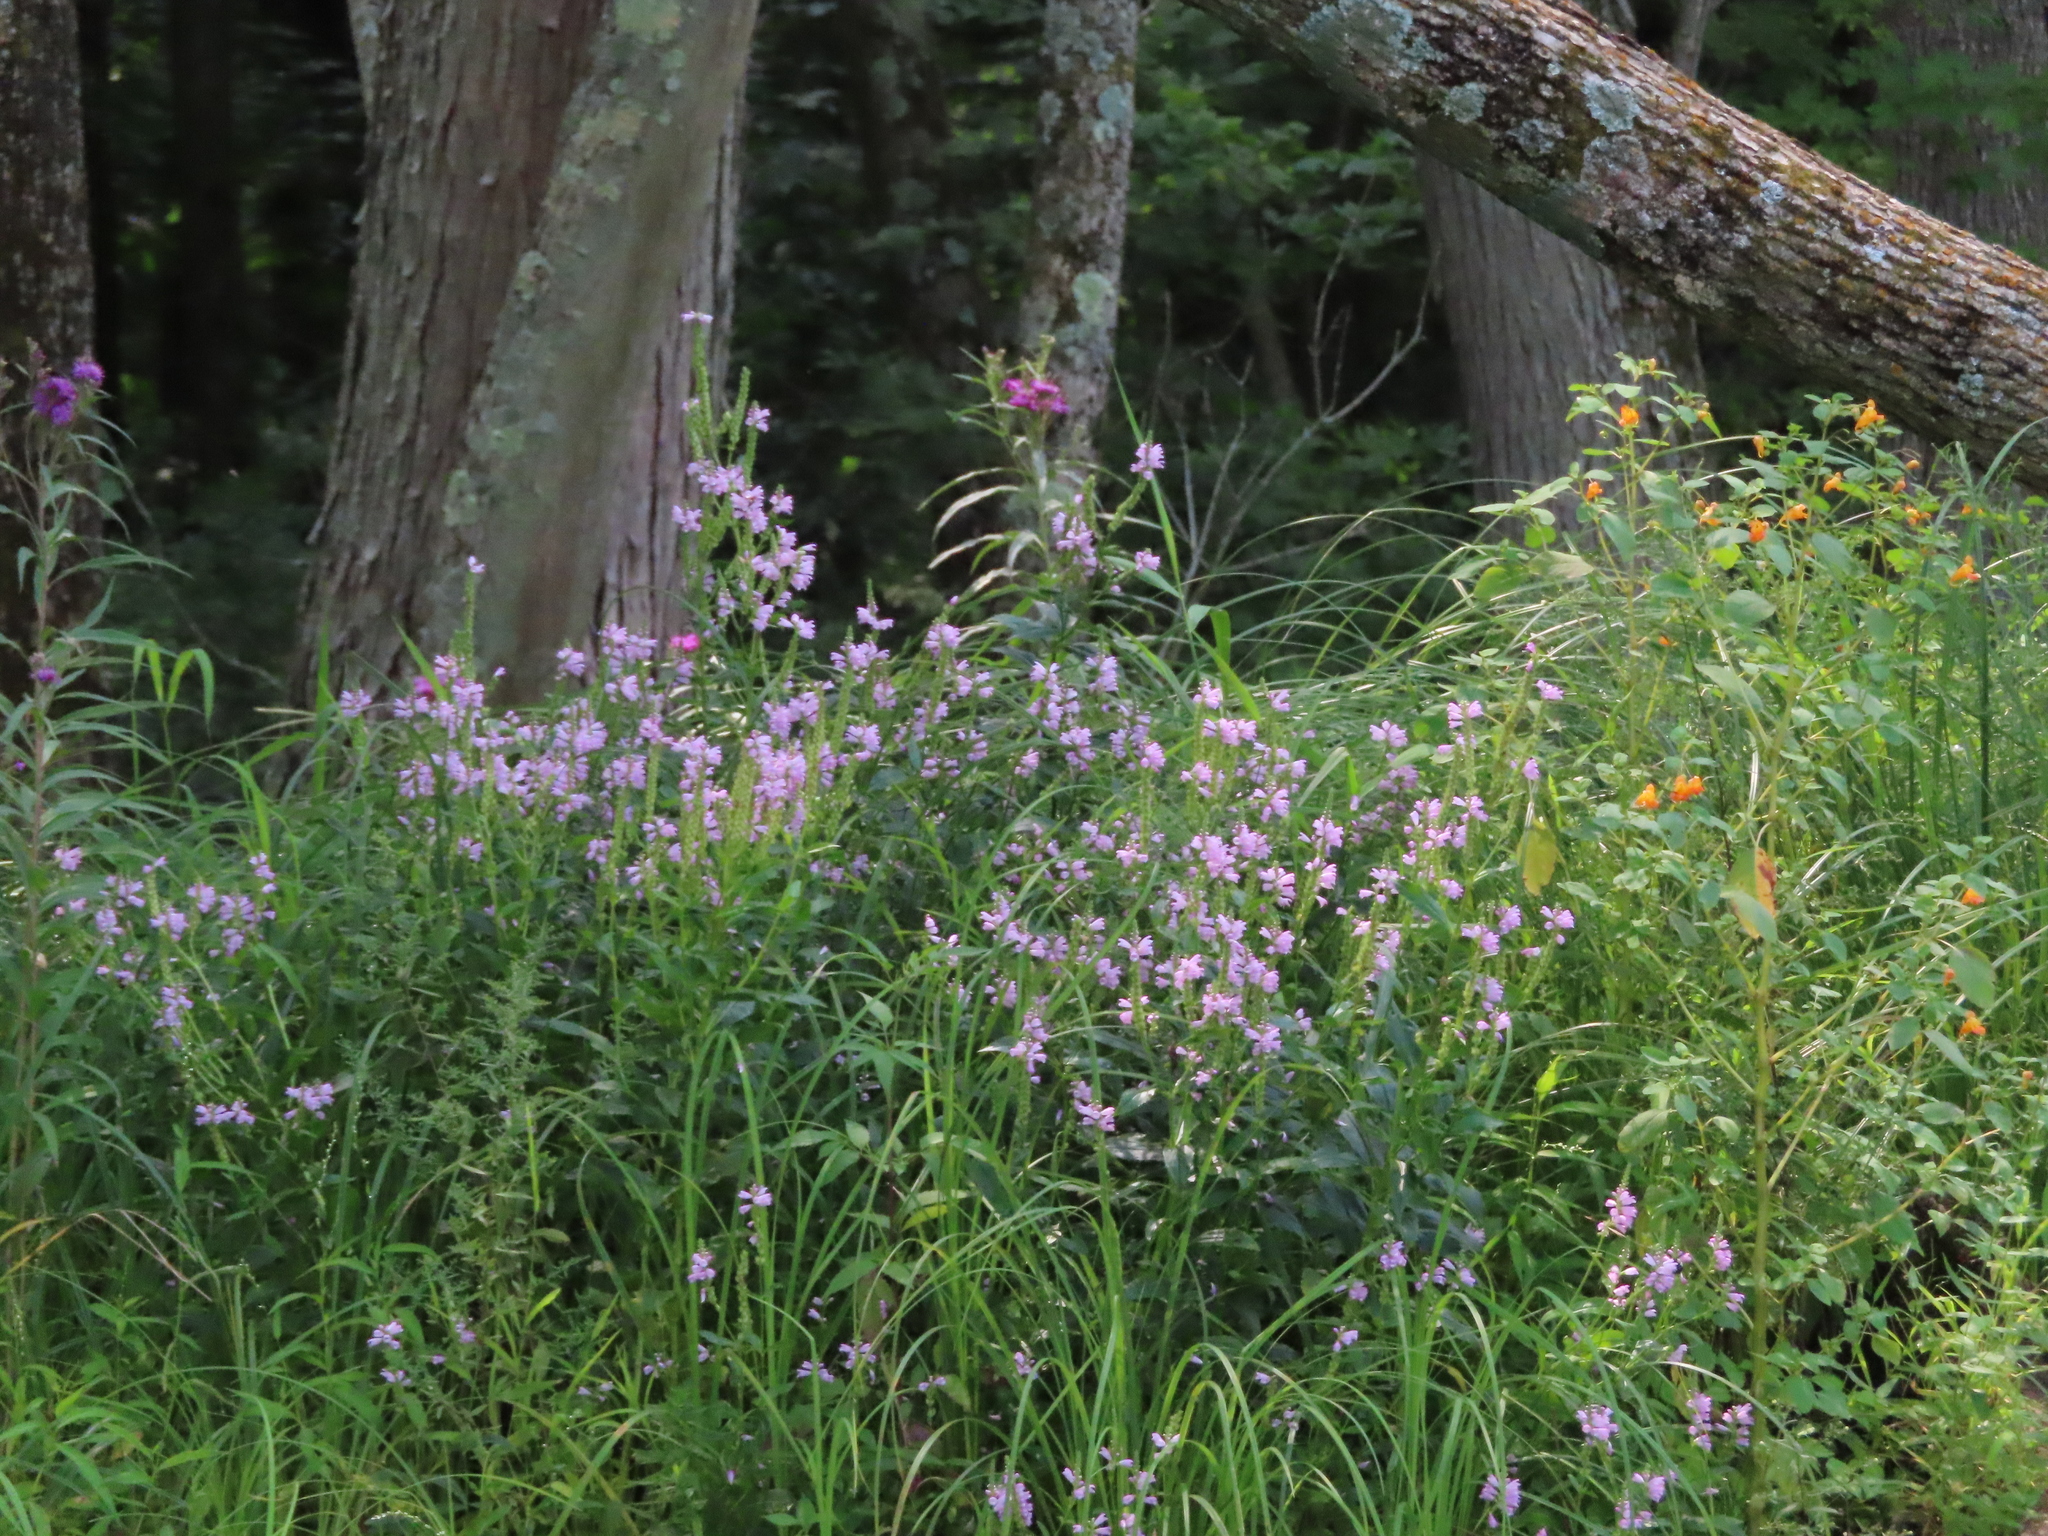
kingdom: Plantae
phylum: Tracheophyta
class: Magnoliopsida
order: Lamiales
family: Lamiaceae
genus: Physostegia
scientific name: Physostegia virginiana
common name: Obedient-plant
